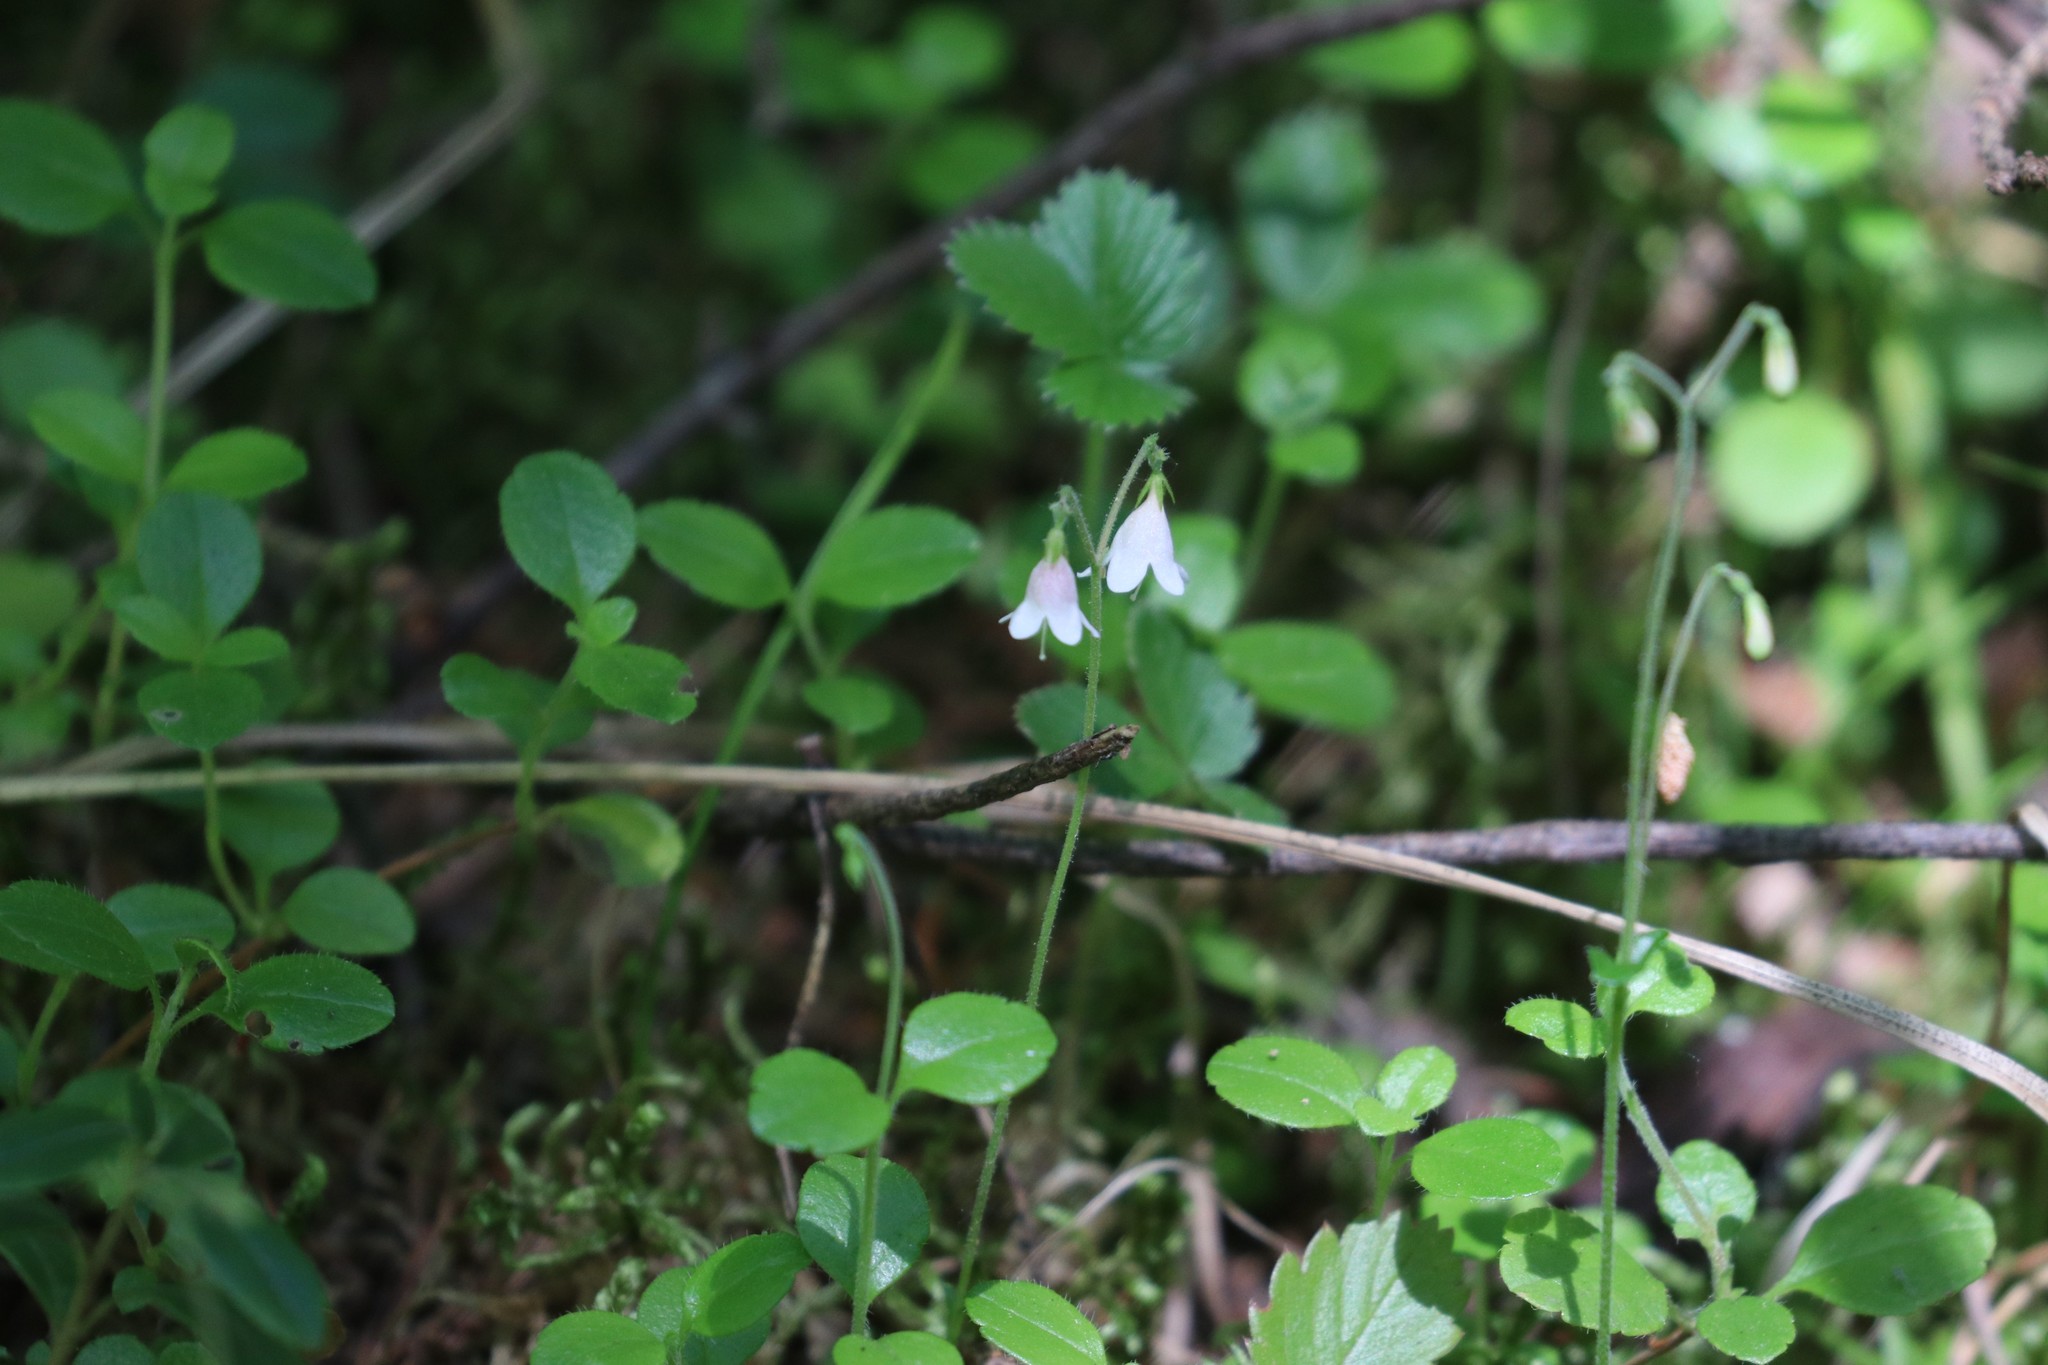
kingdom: Plantae
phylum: Tracheophyta
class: Magnoliopsida
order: Dipsacales
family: Caprifoliaceae
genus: Linnaea
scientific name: Linnaea borealis
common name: Twinflower
